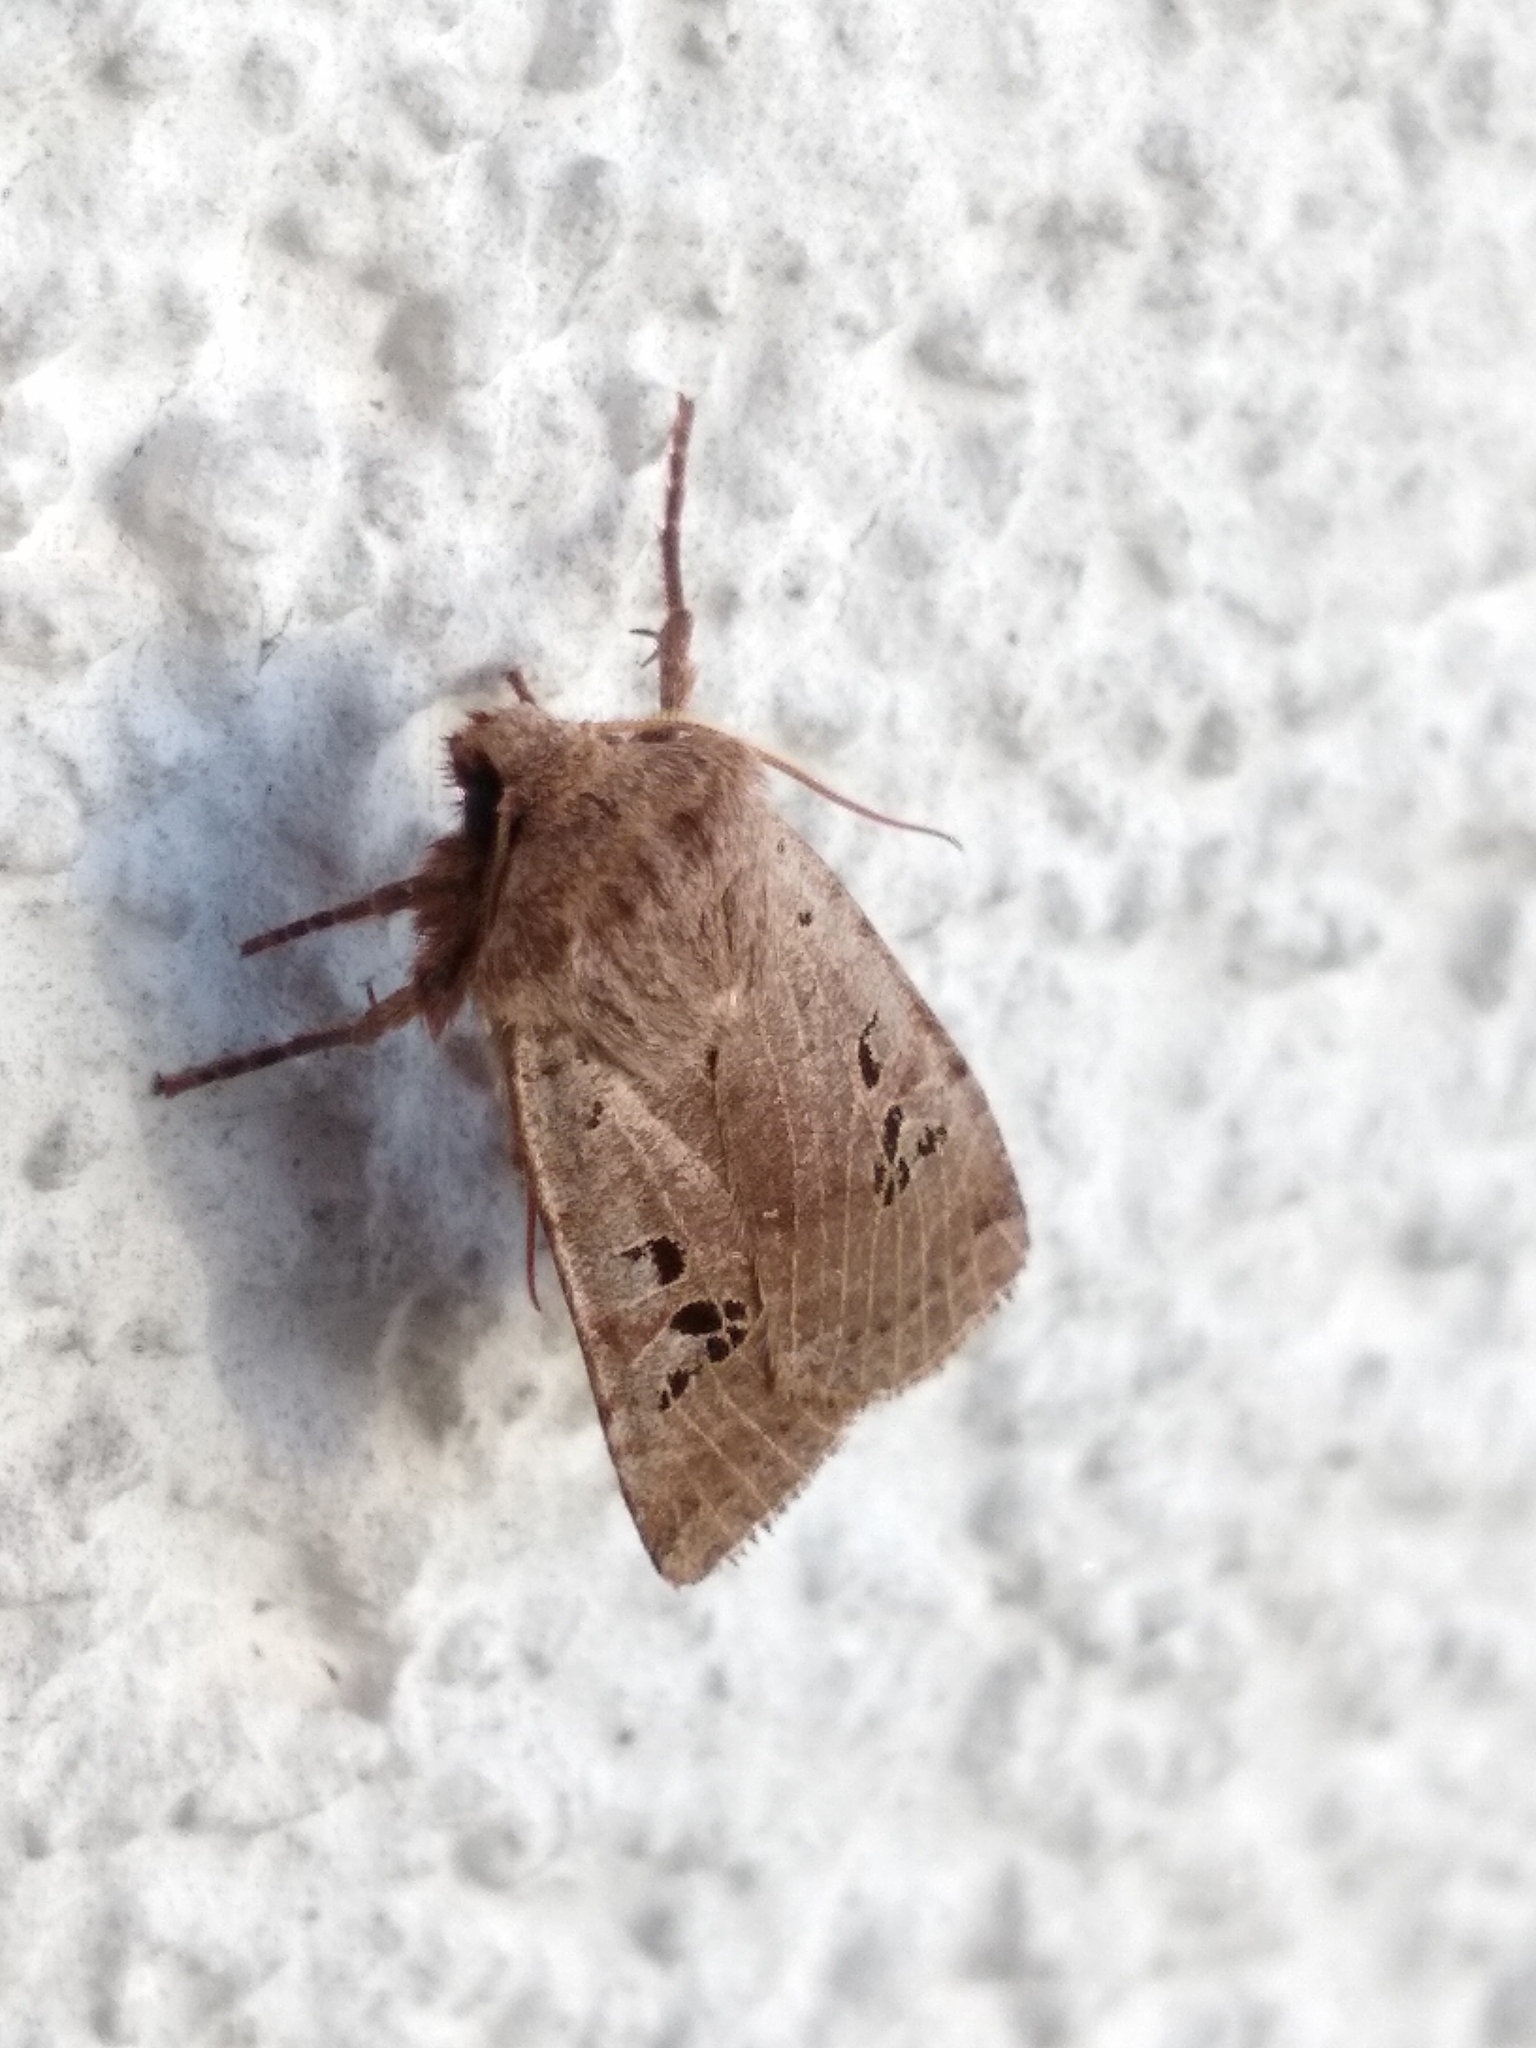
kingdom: Animalia
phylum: Arthropoda
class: Insecta
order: Lepidoptera
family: Noctuidae
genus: Conistra
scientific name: Conistra rubiginosa
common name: Black-spotted chestnut
